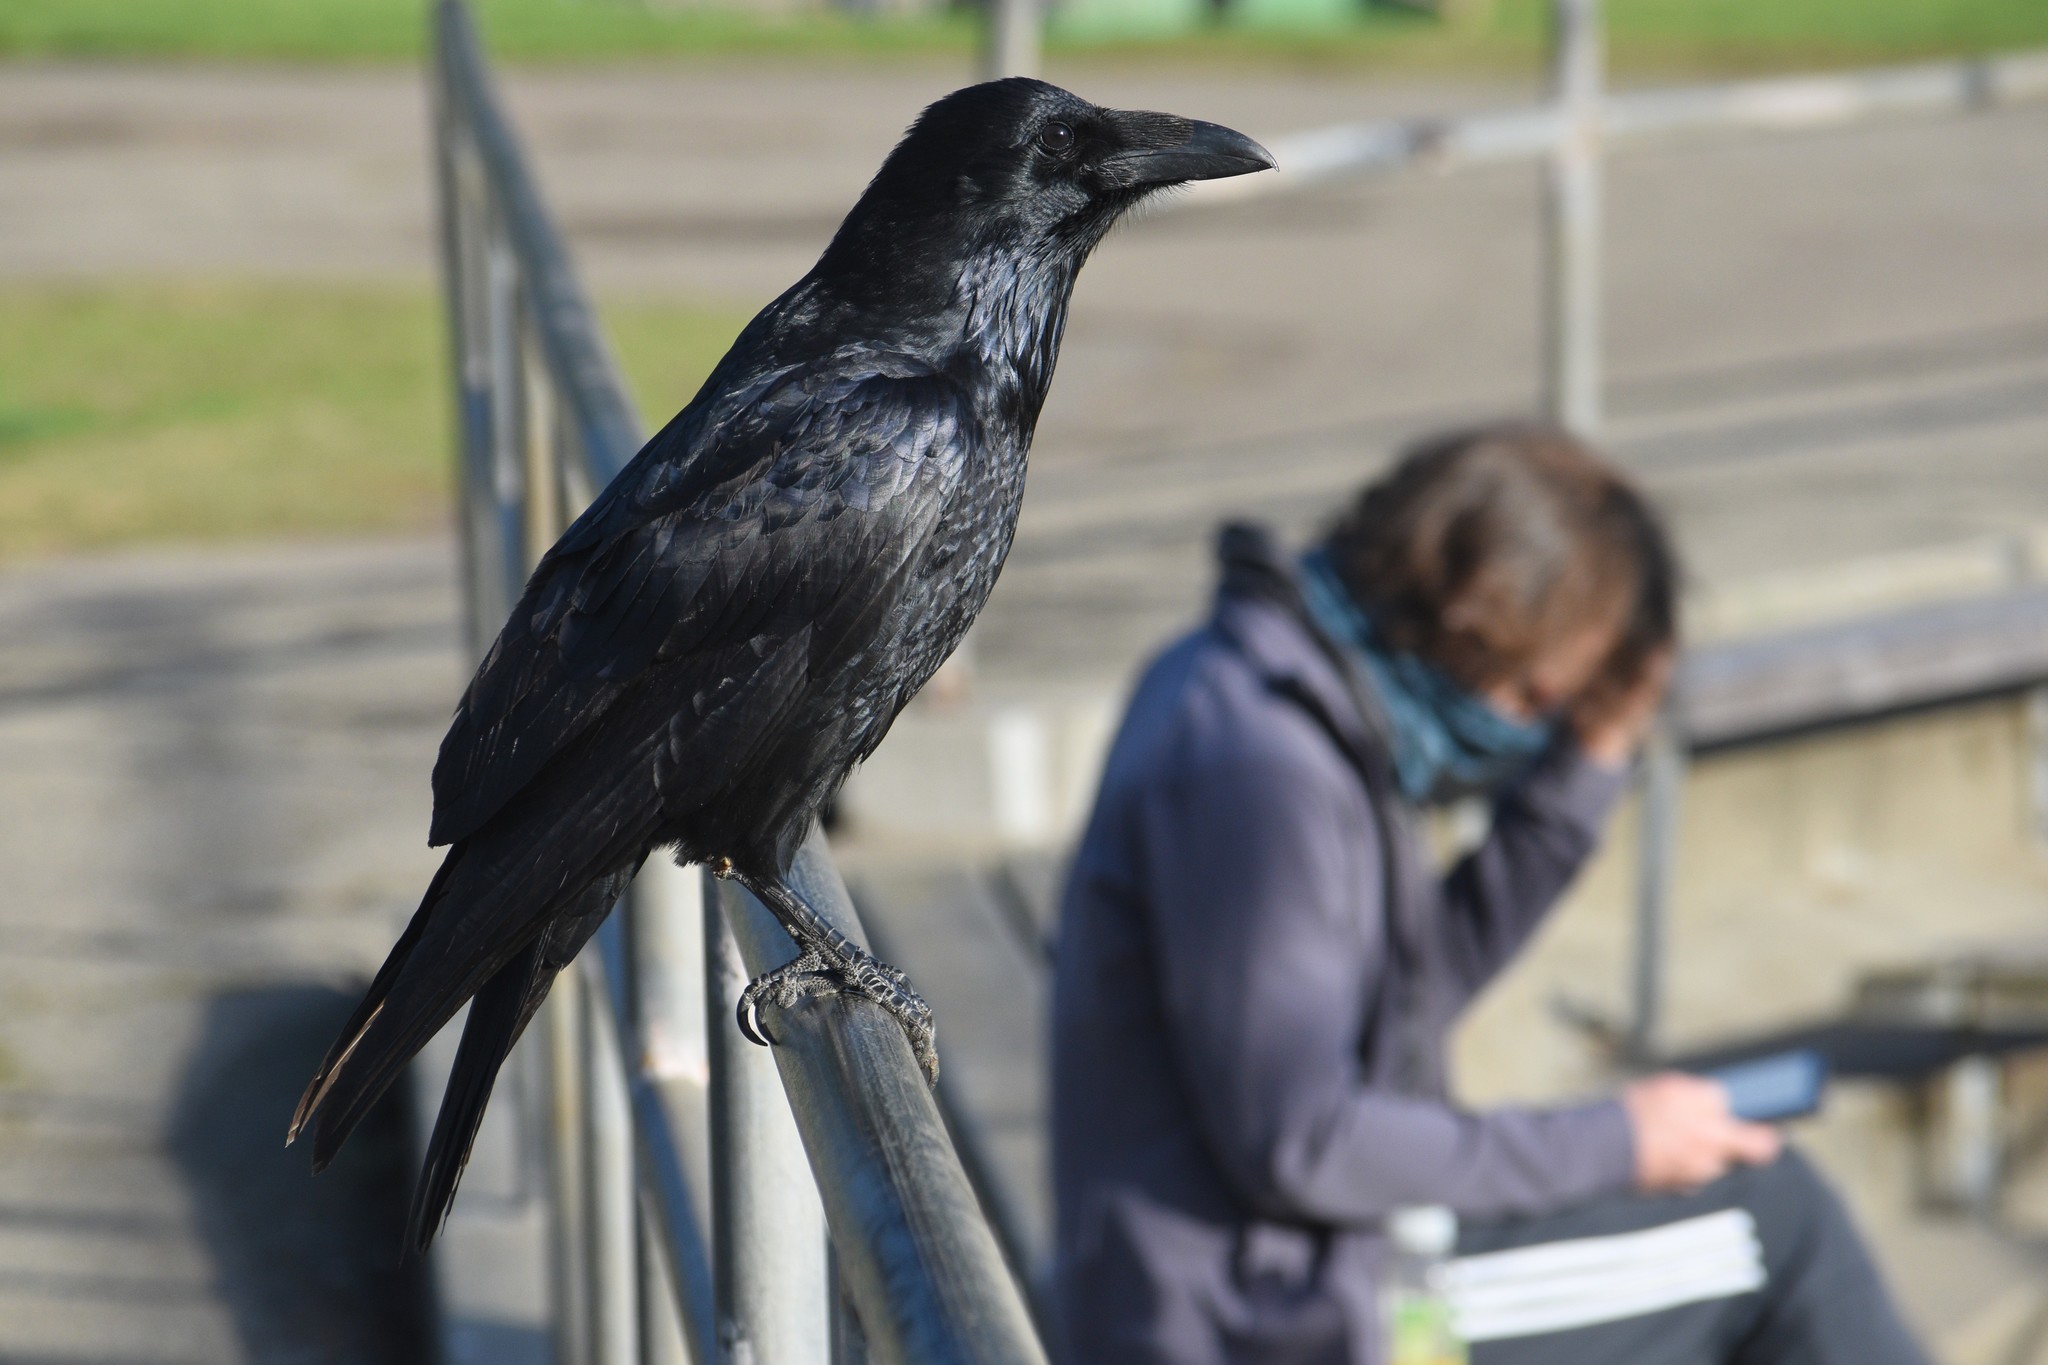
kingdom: Animalia
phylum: Chordata
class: Aves
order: Passeriformes
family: Corvidae
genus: Corvus
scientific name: Corvus corax
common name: Common raven
